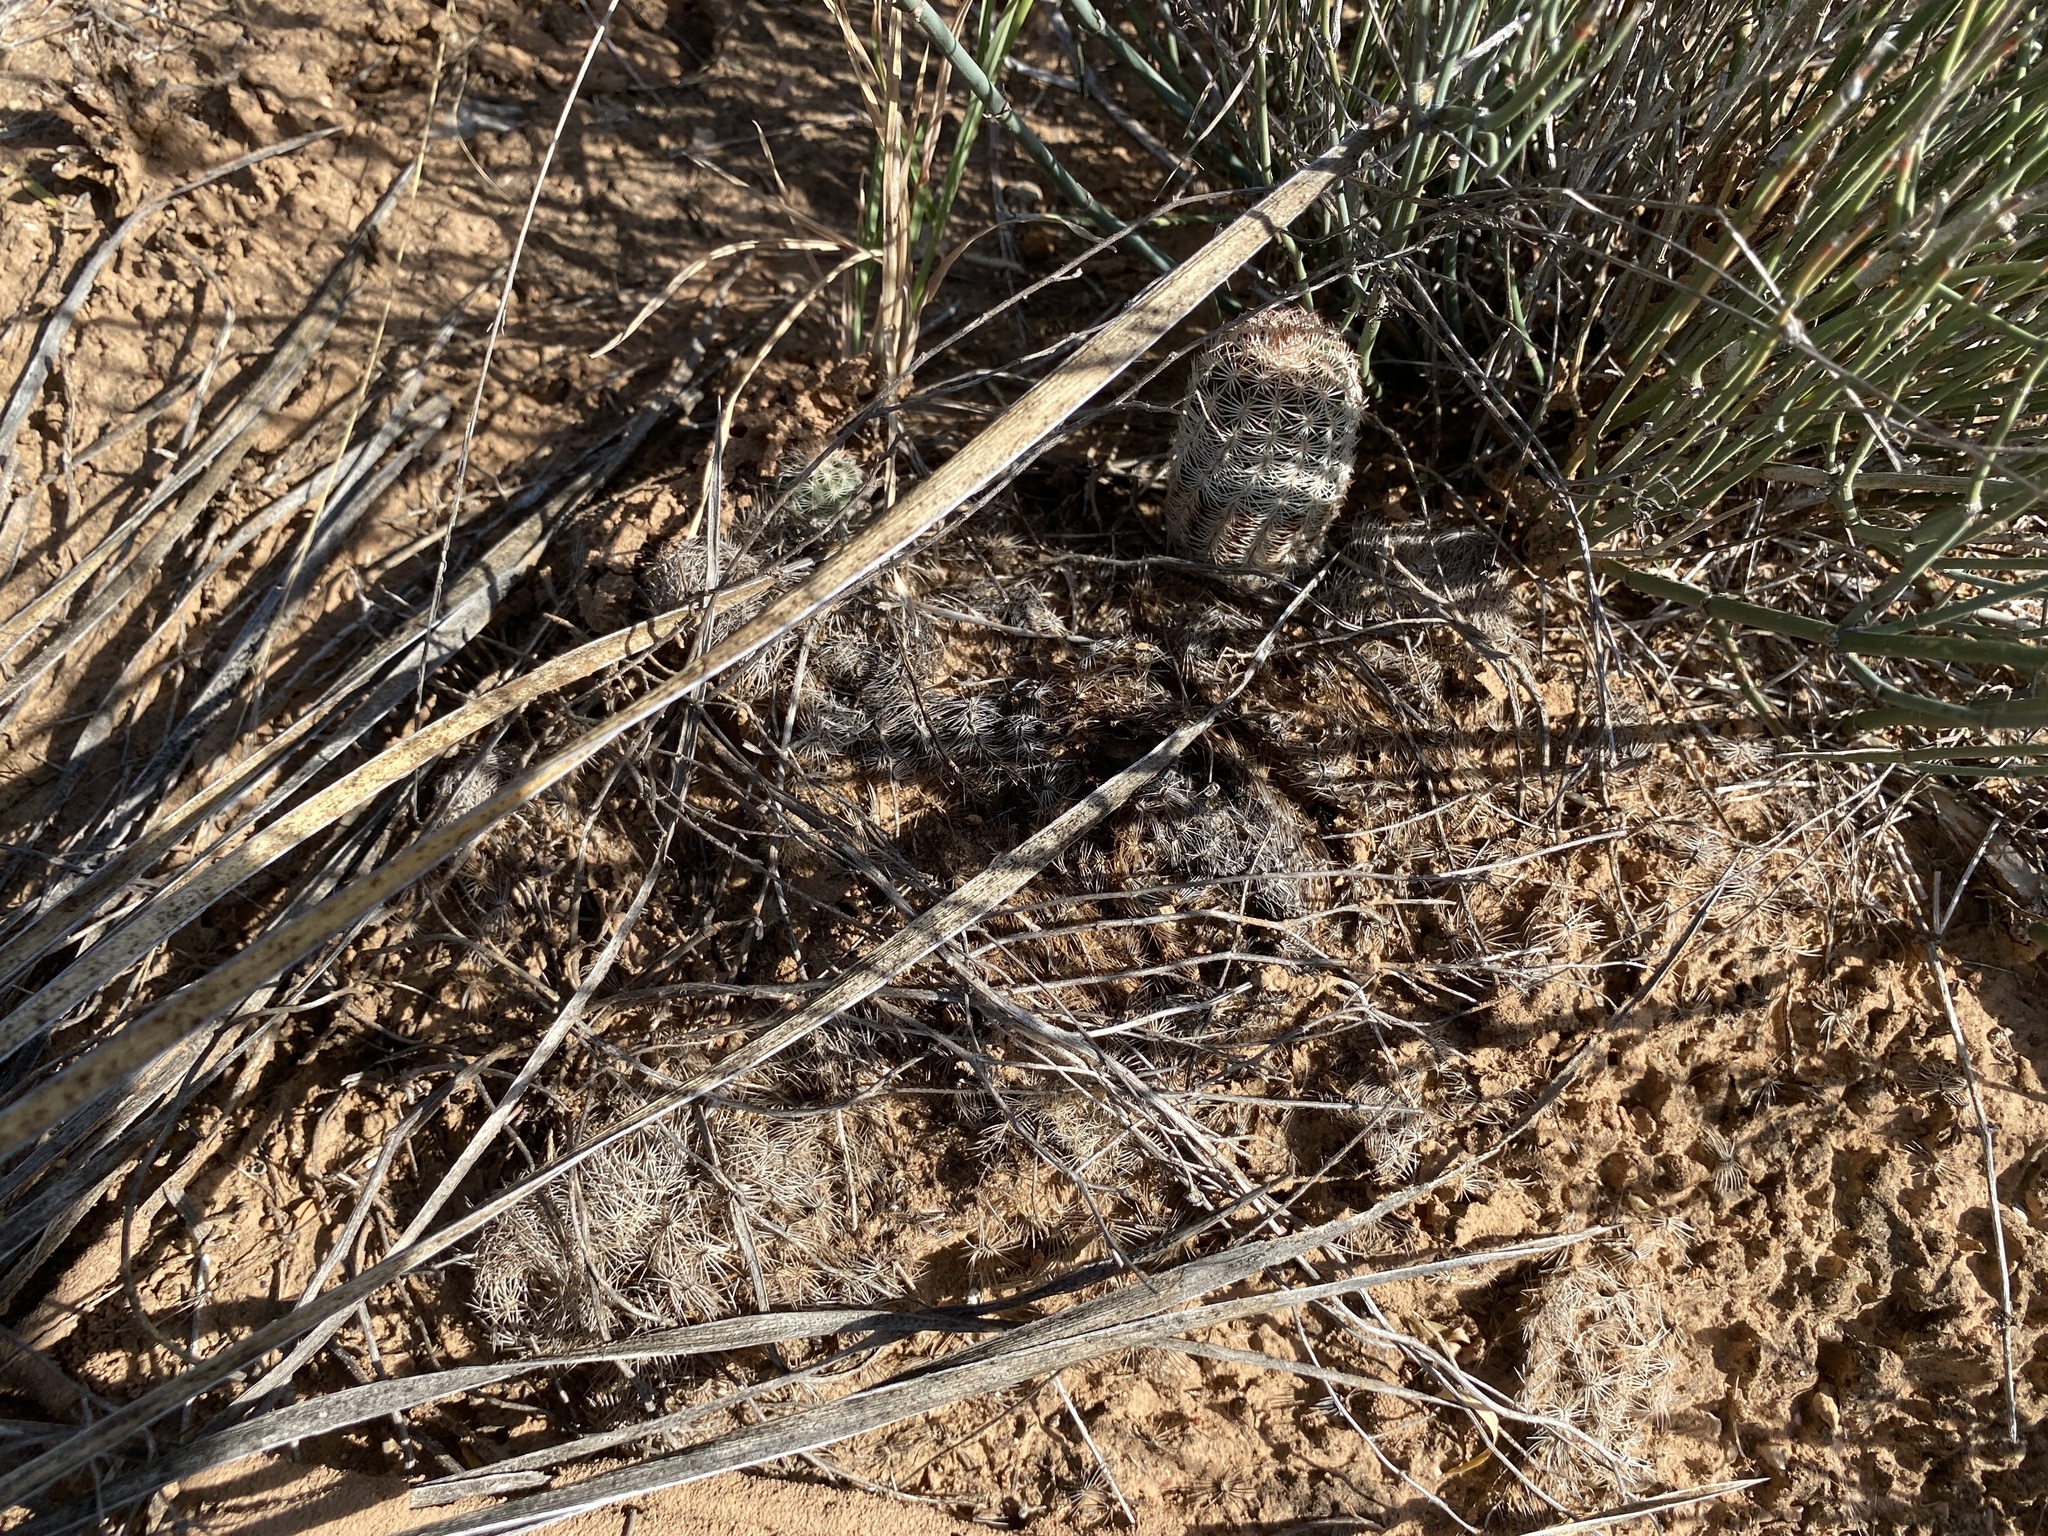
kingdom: Plantae
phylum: Tracheophyta
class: Magnoliopsida
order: Caryophyllales
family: Cactaceae
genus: Echinocereus
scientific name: Echinocereus reichenbachii
